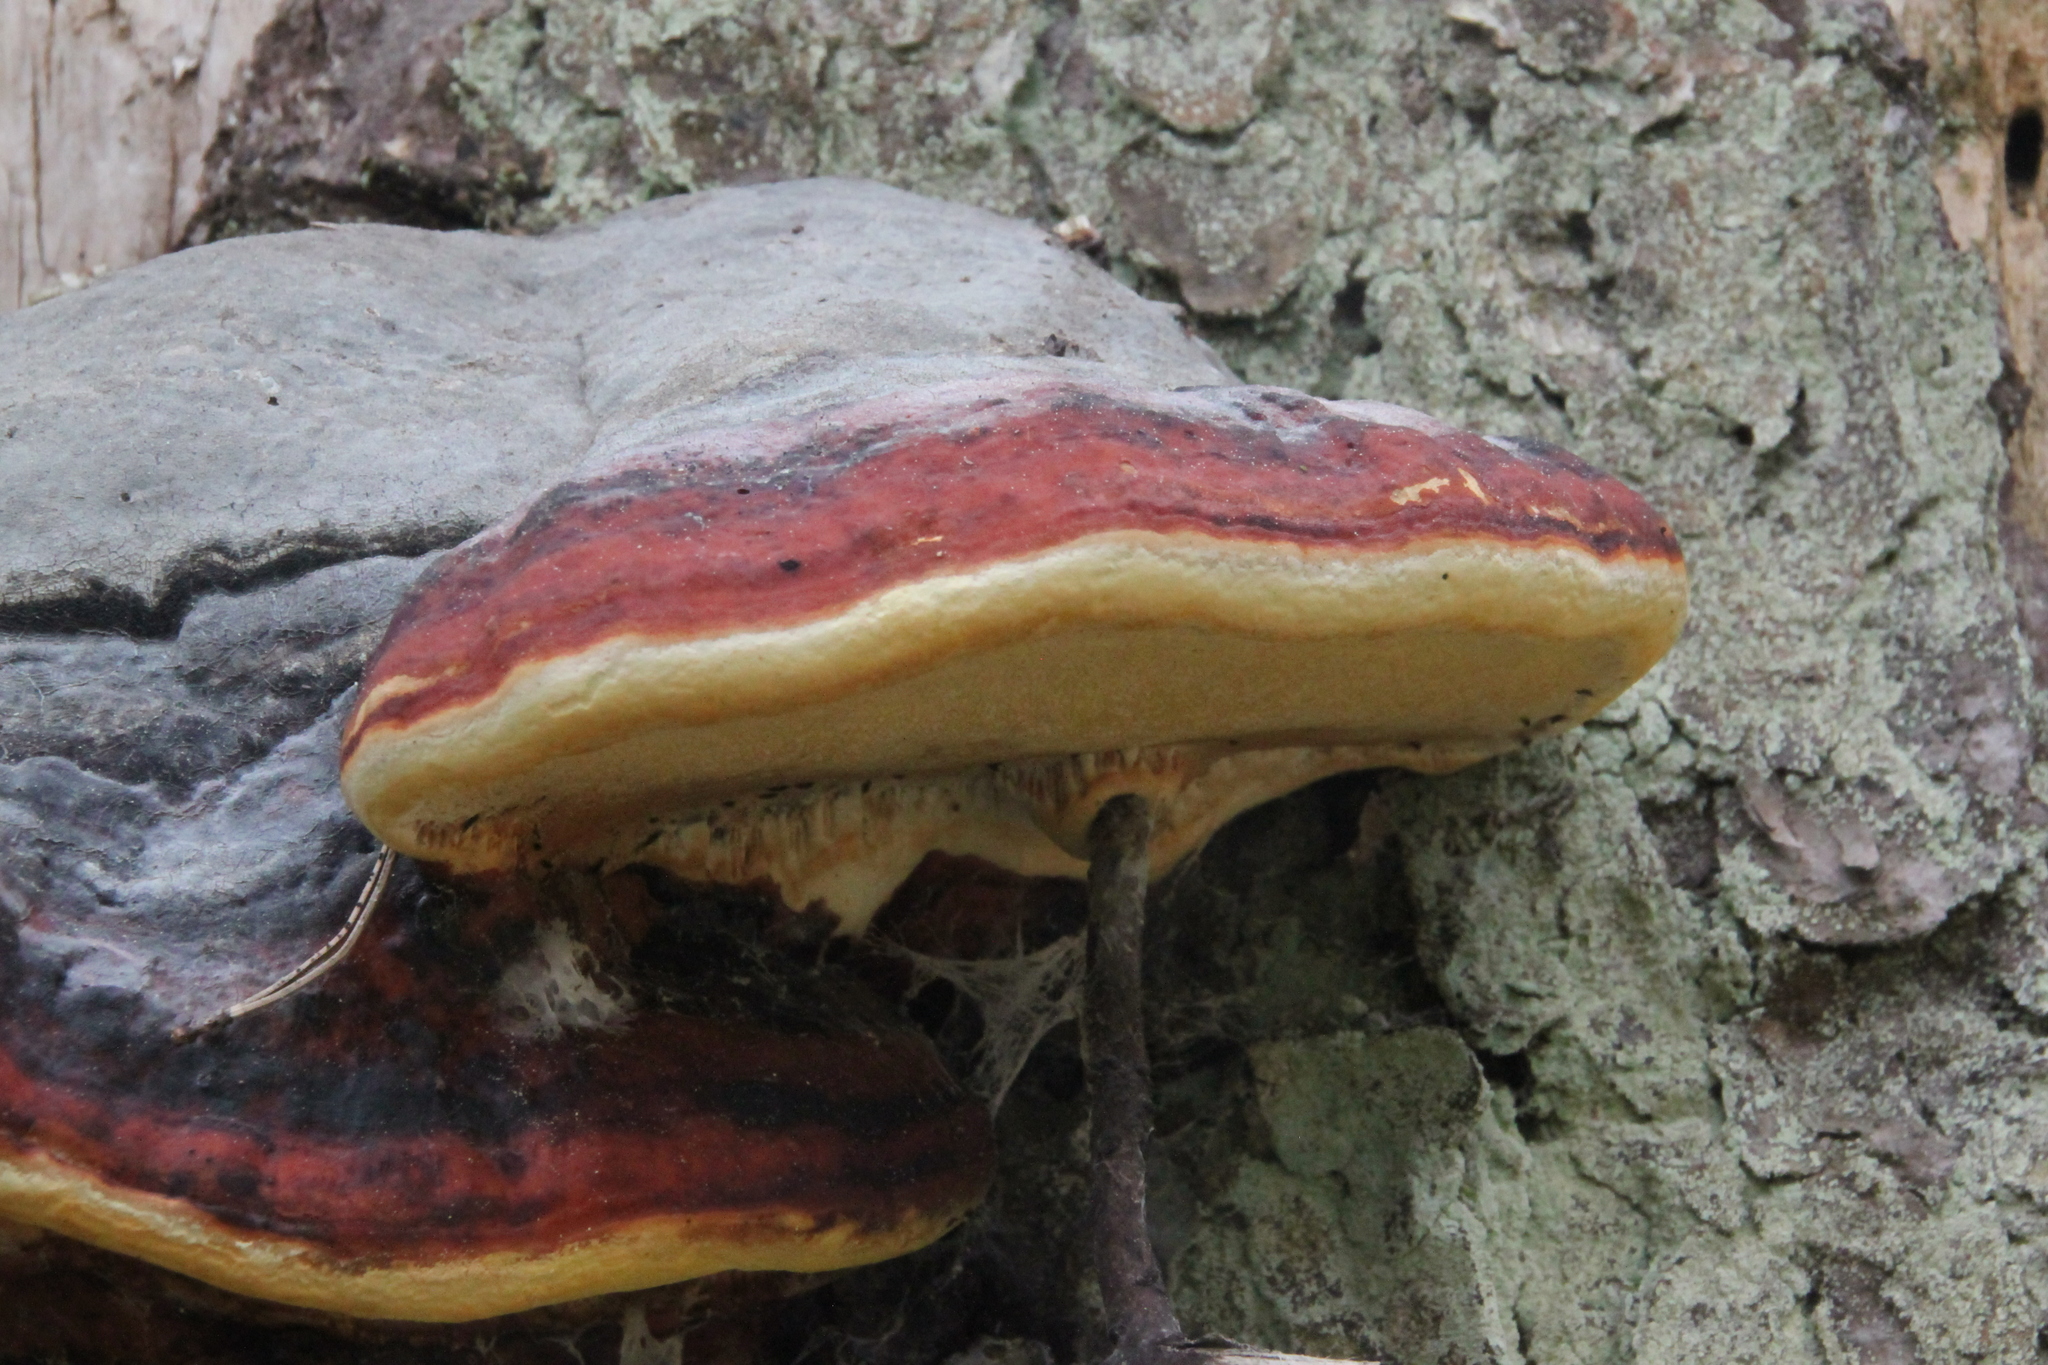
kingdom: Fungi
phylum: Basidiomycota
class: Agaricomycetes
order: Polyporales
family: Fomitopsidaceae
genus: Fomitopsis
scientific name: Fomitopsis pinicola
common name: Red-belted bracket
